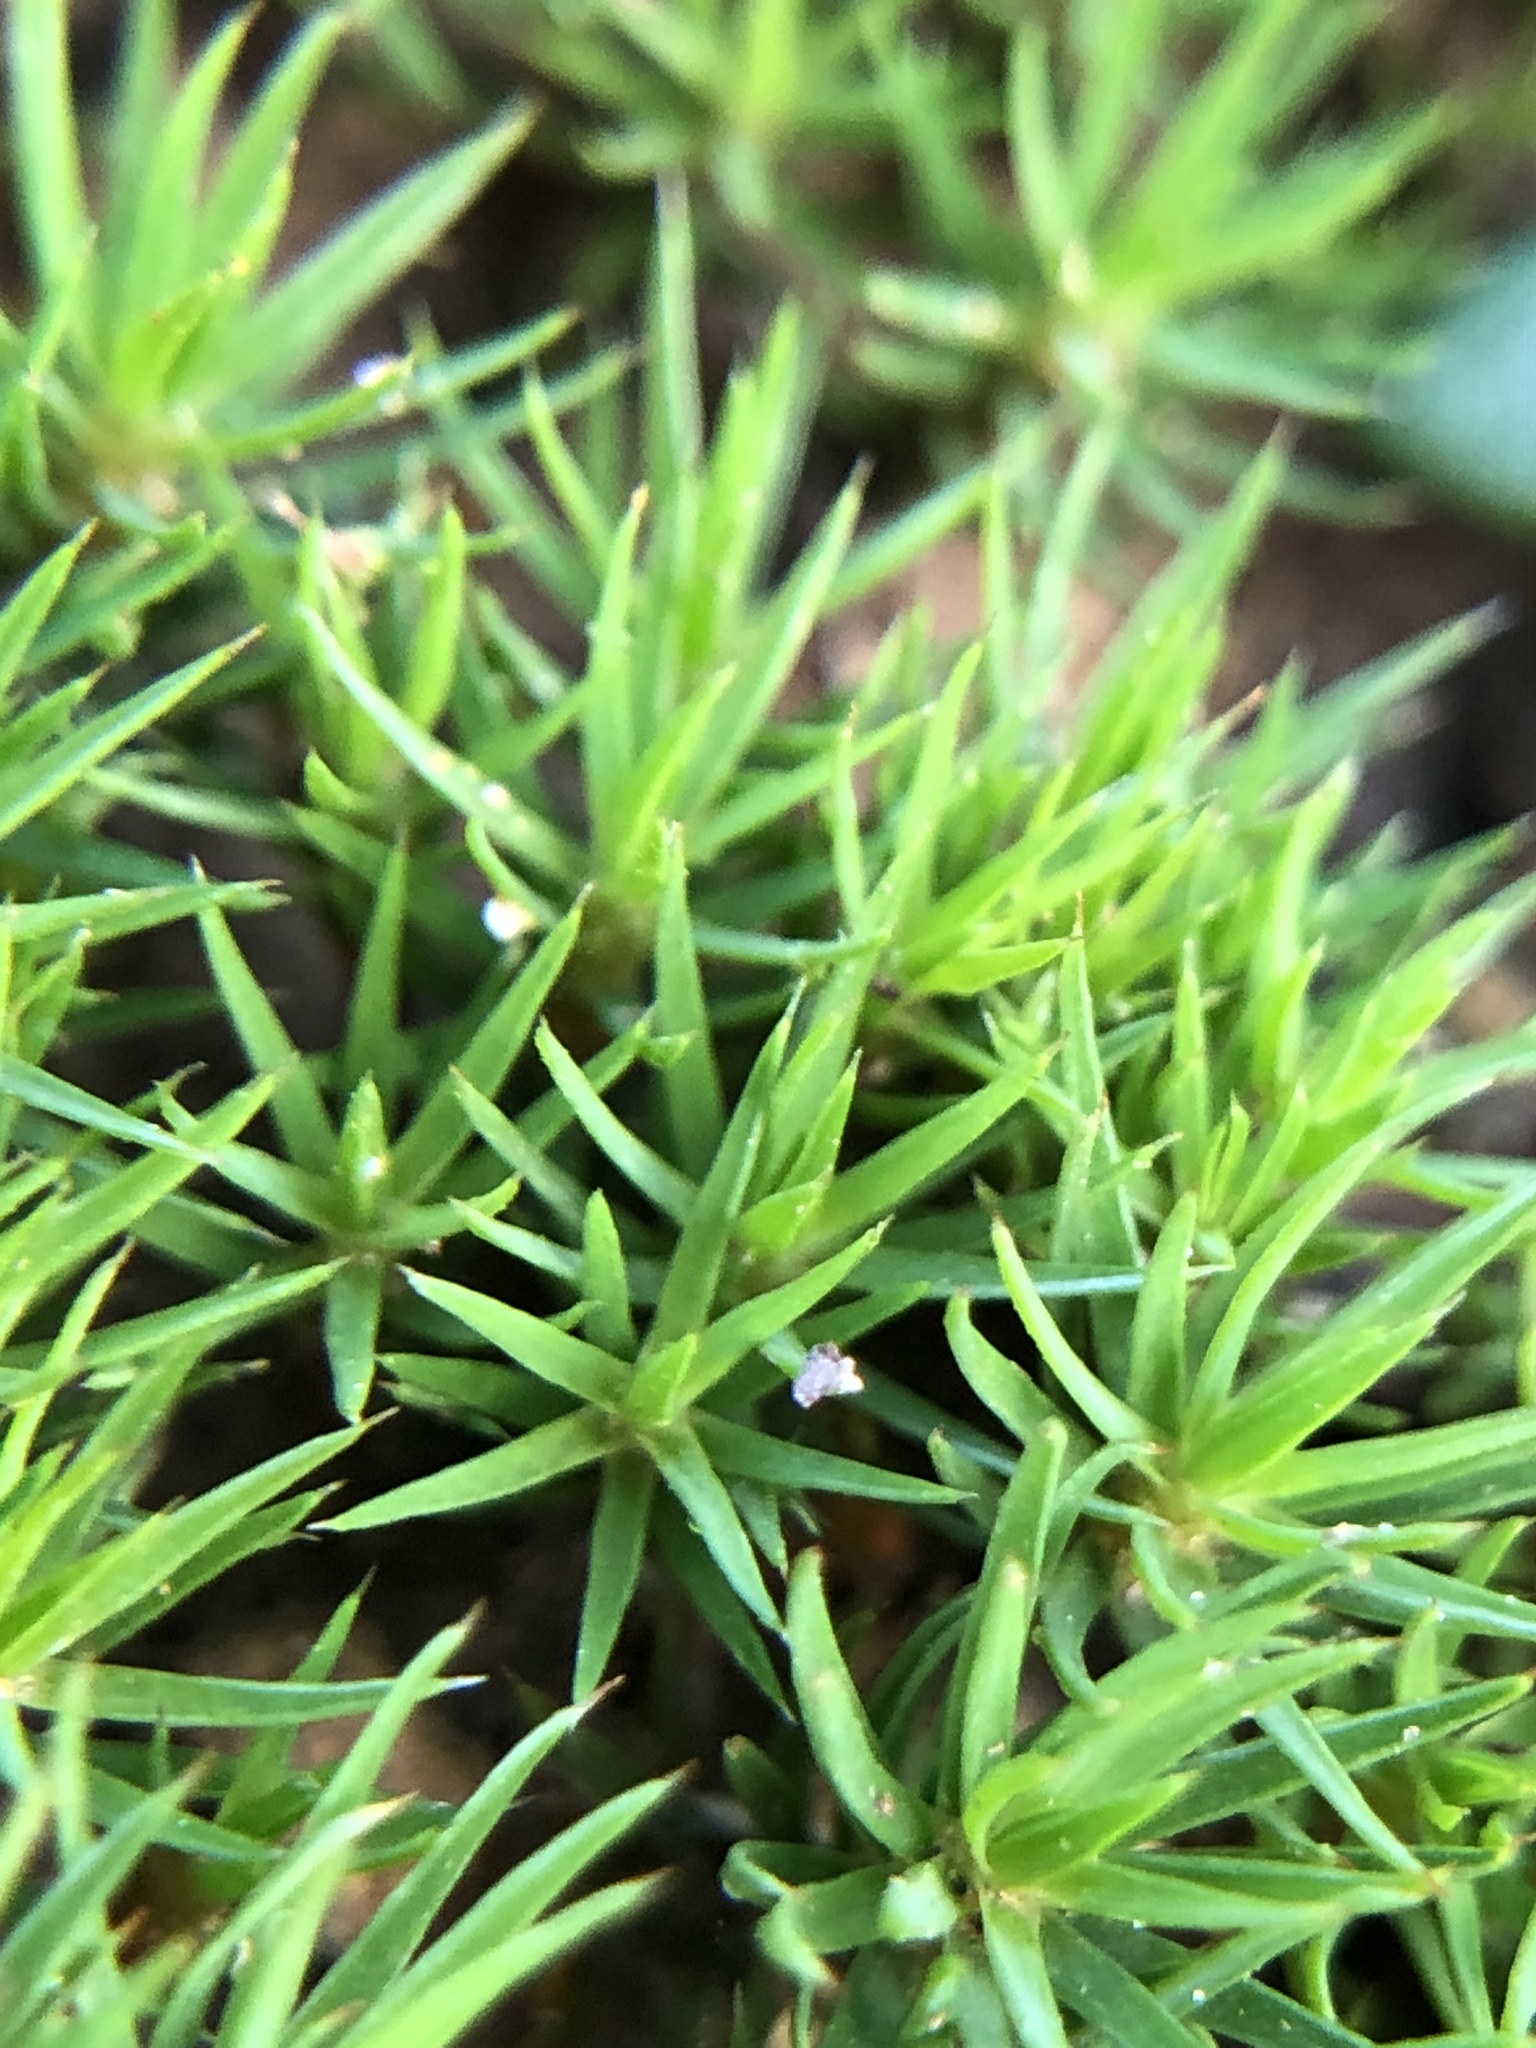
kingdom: Plantae
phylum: Bryophyta
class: Polytrichopsida
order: Polytrichales
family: Polytrichaceae
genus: Polytrichum
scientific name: Polytrichum juniperinum
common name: Juniper haircap moss
